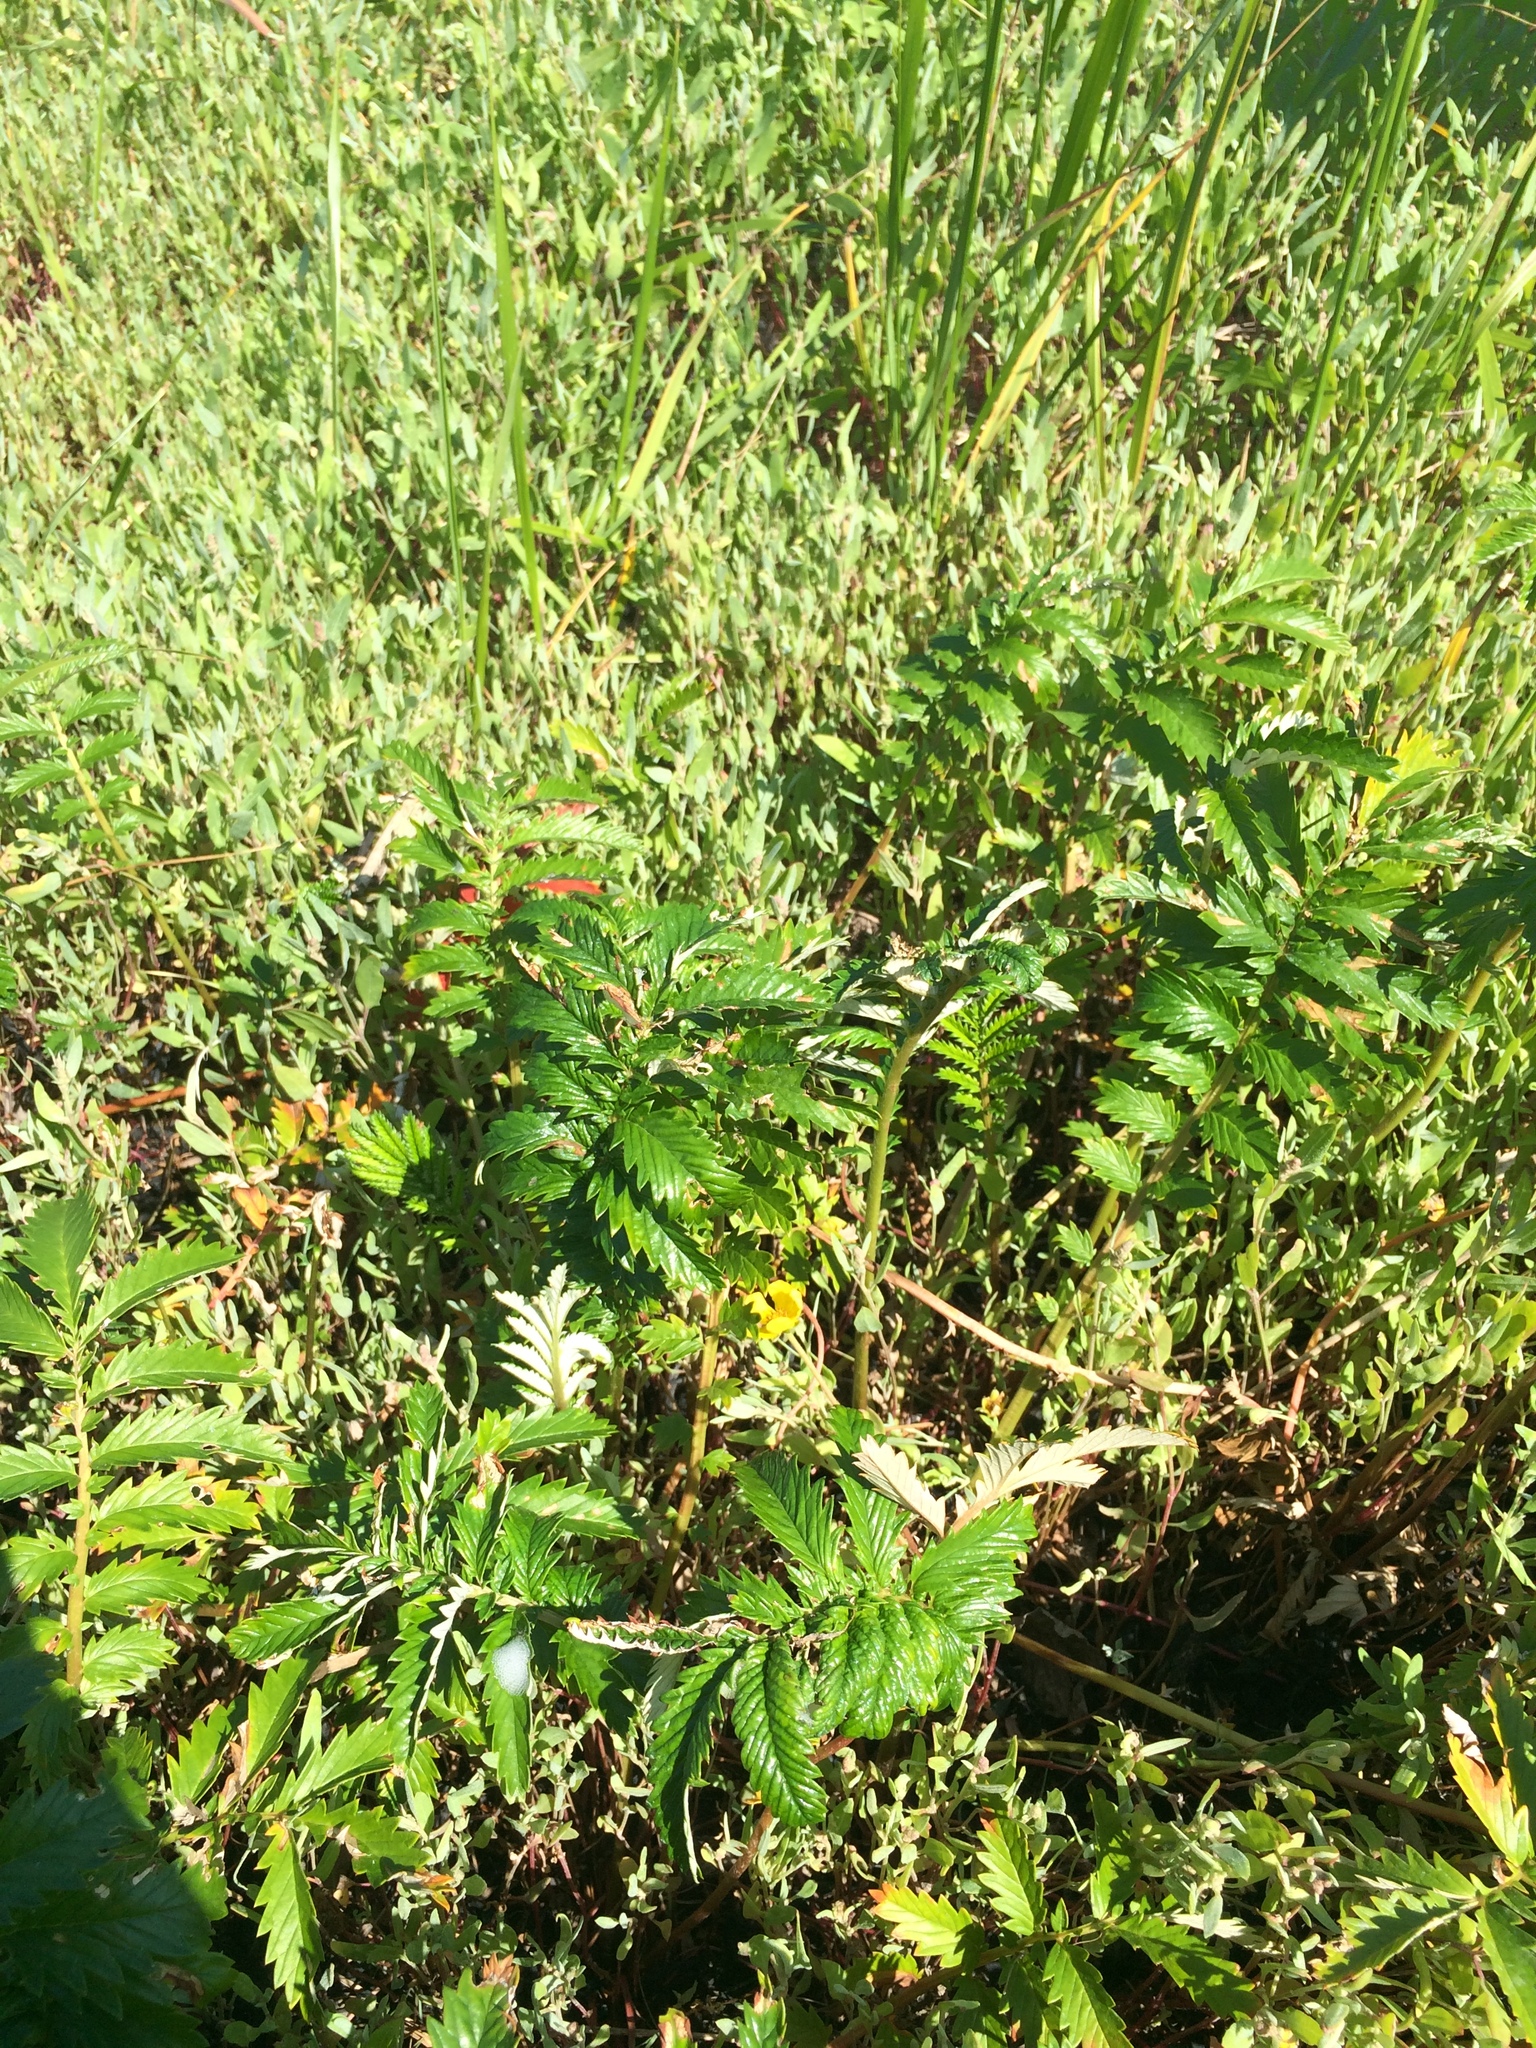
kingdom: Plantae
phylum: Tracheophyta
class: Magnoliopsida
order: Rosales
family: Rosaceae
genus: Argentina
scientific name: Argentina anserina
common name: Common silverweed
